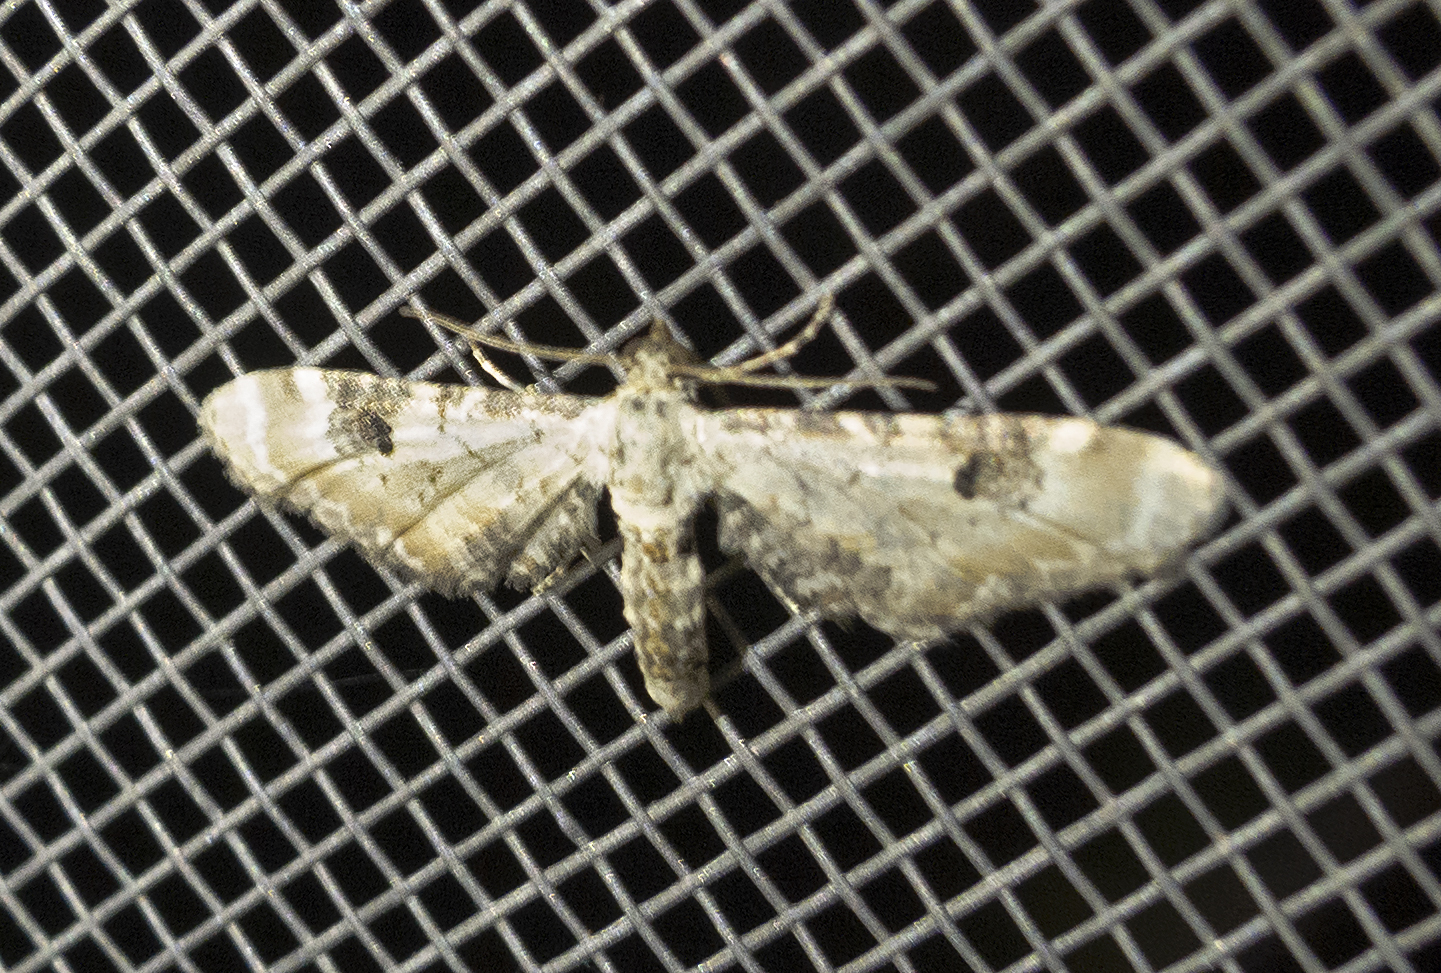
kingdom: Animalia
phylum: Arthropoda
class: Insecta
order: Lepidoptera
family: Geometridae
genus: Eupithecia
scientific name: Eupithecia centaureata
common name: Lime-speck pug
